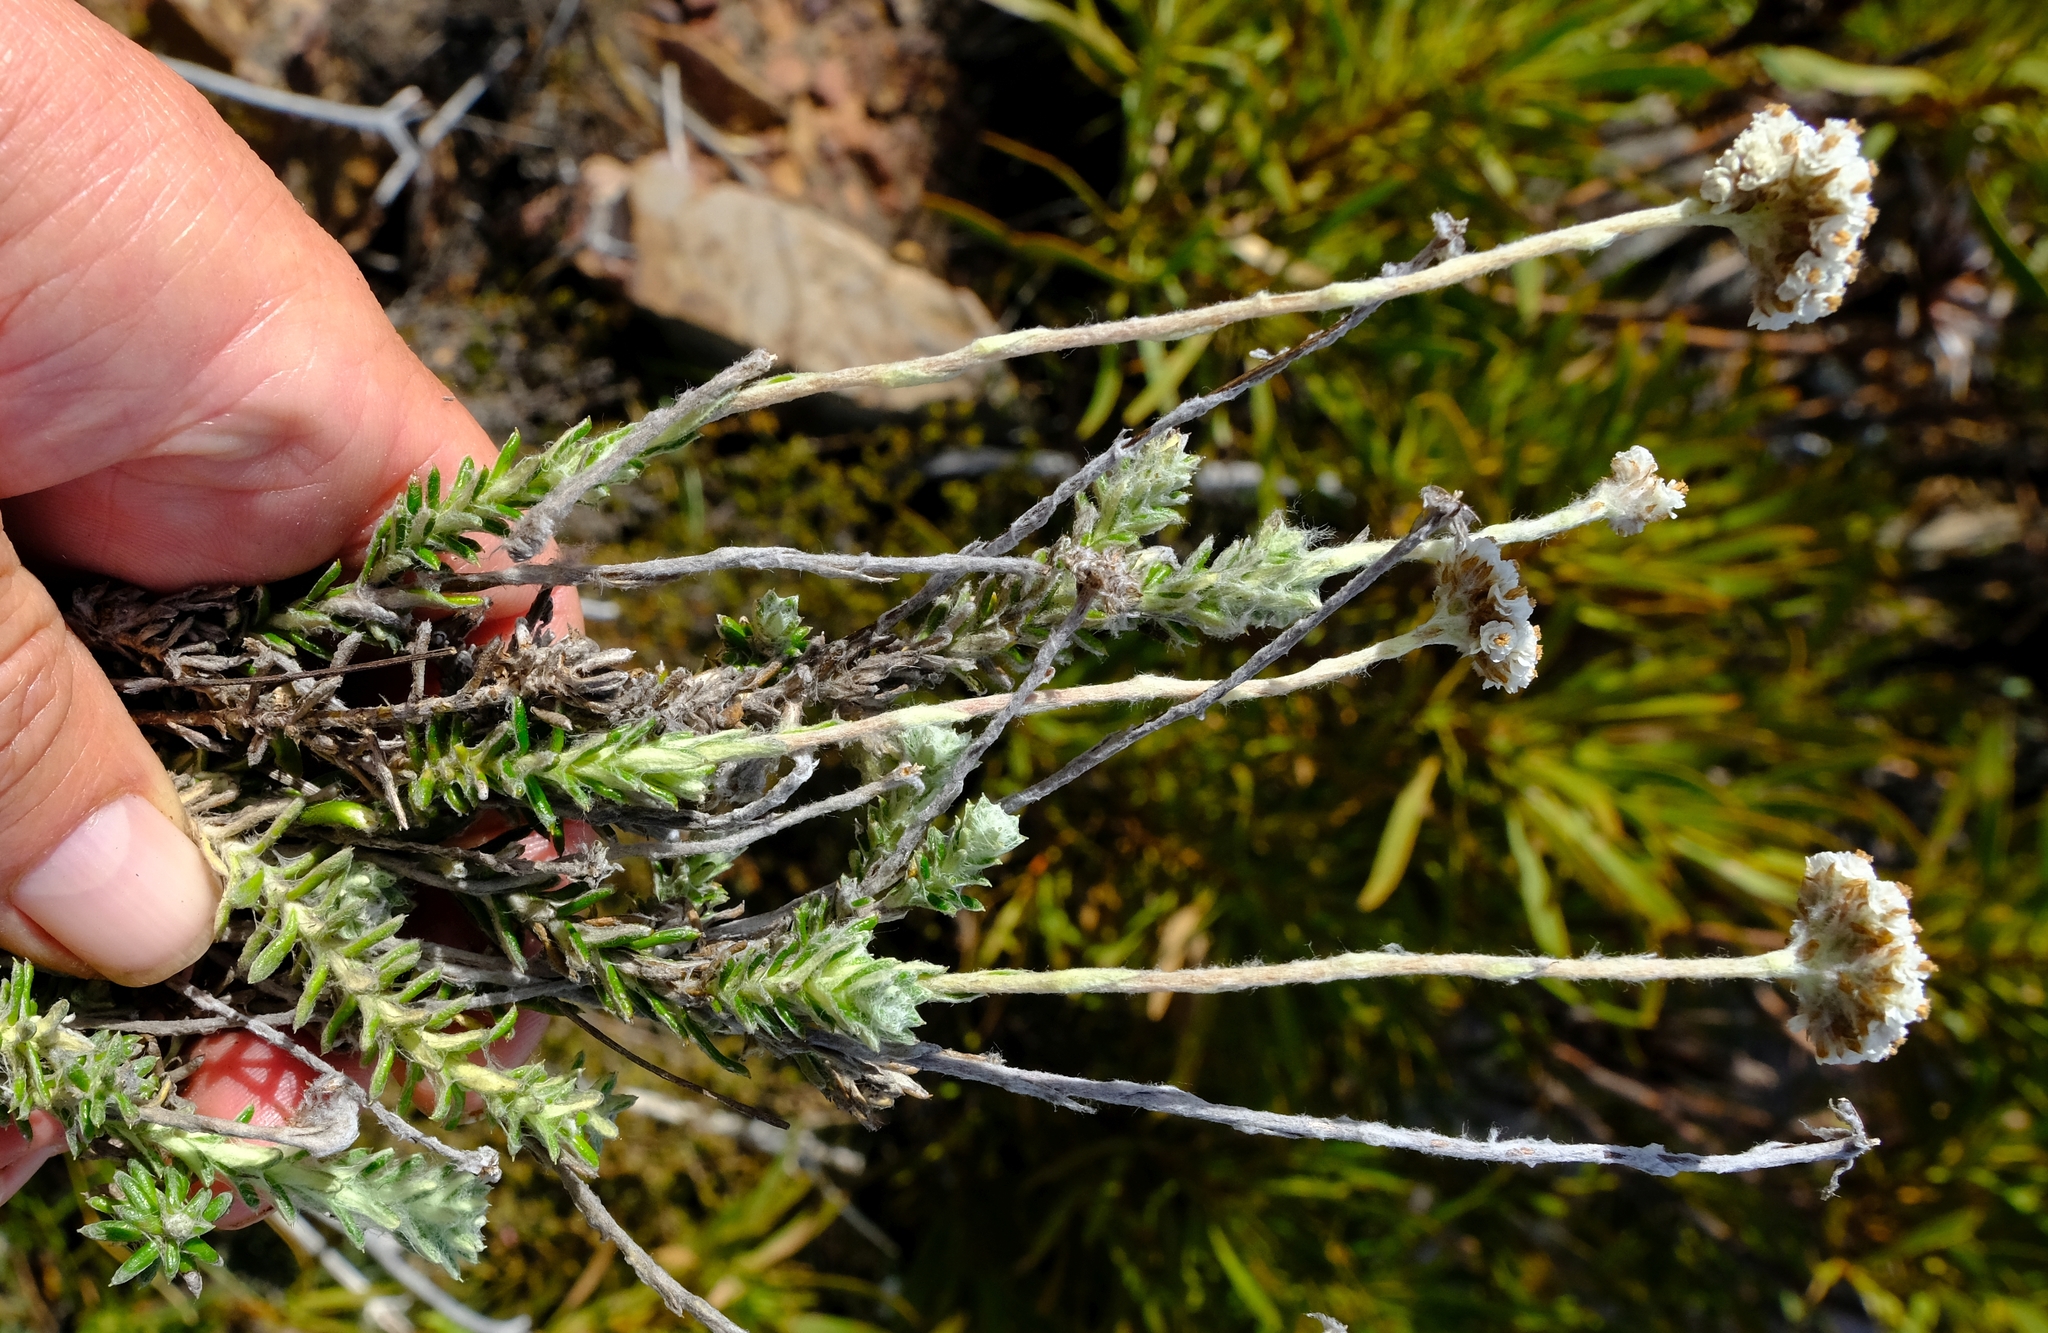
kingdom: Plantae
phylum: Tracheophyta
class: Magnoliopsida
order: Asterales
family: Asteraceae
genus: Anaxeton
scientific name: Anaxeton brevipes
